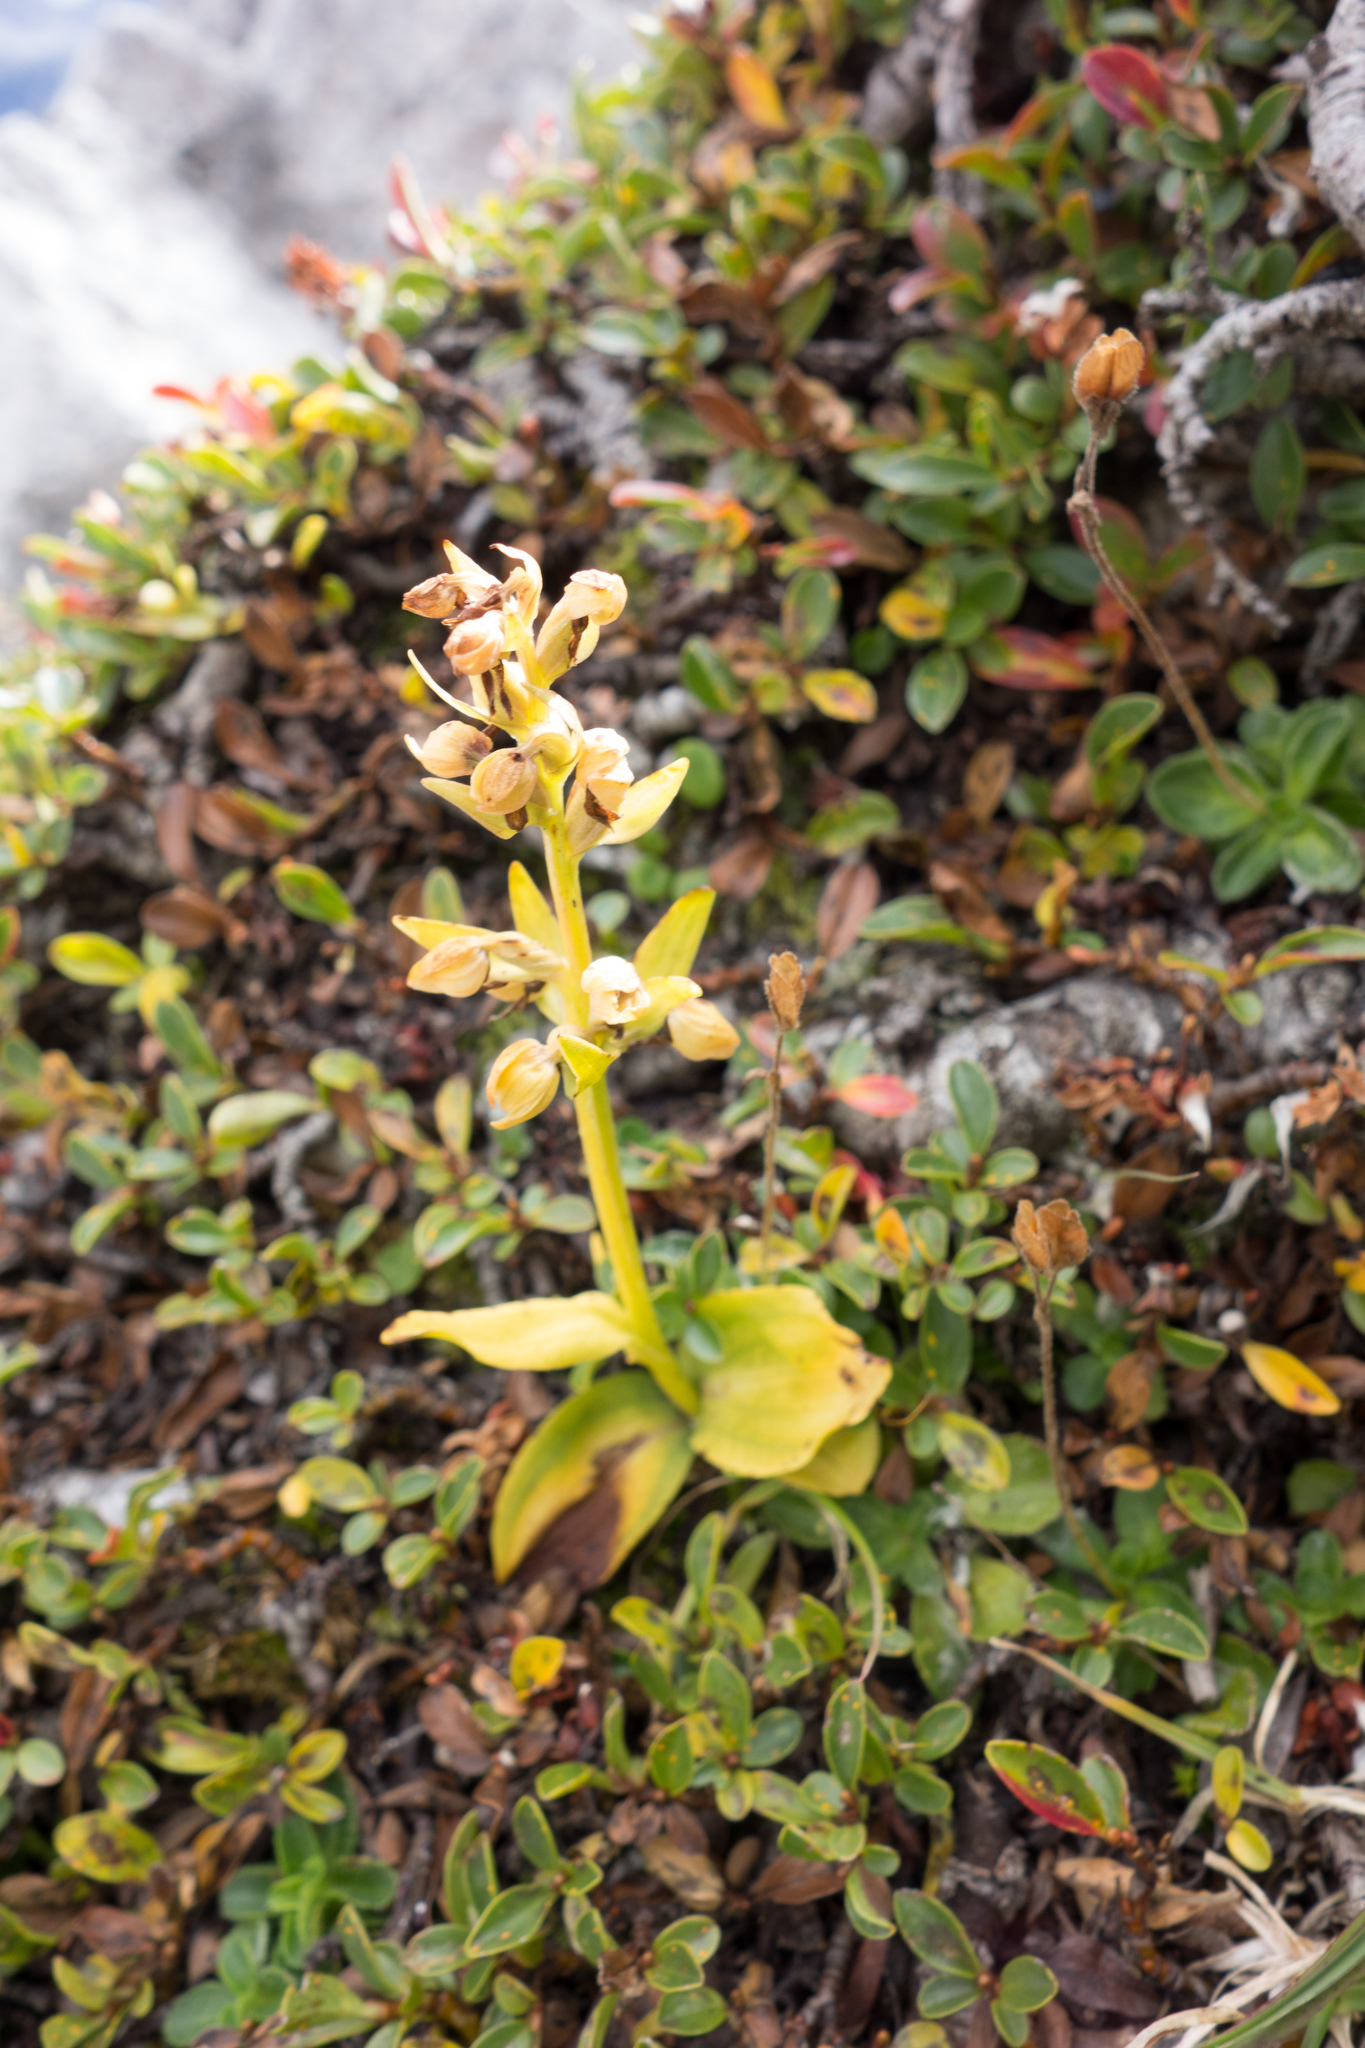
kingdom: Plantae
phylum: Tracheophyta
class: Liliopsida
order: Asparagales
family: Orchidaceae
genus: Dactylorhiza
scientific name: Dactylorhiza viridis
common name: Longbract frog orchid
